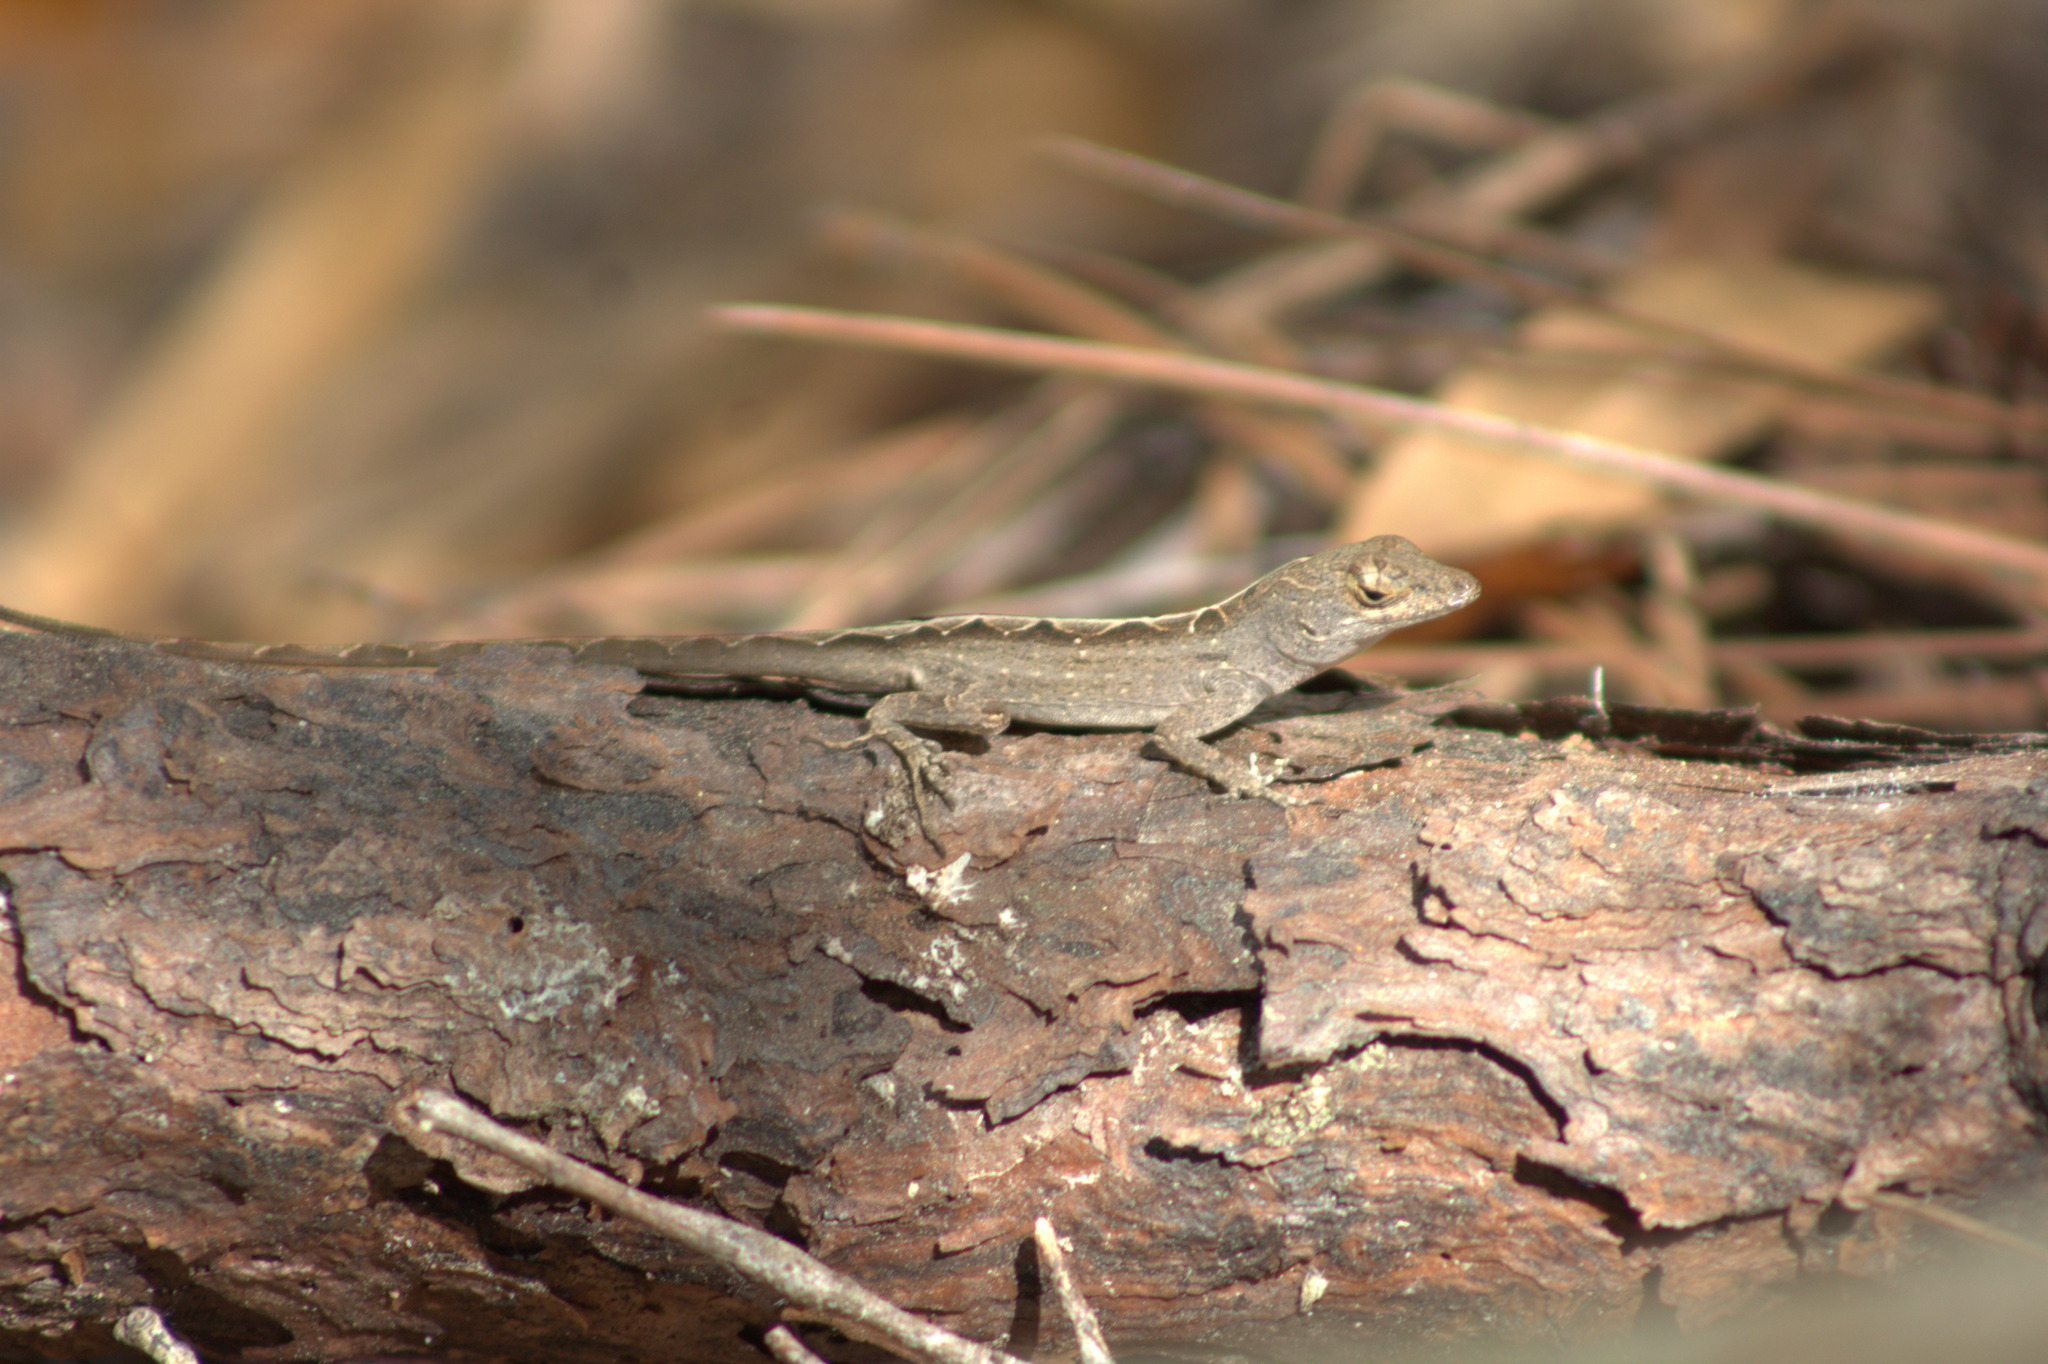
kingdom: Animalia
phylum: Chordata
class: Squamata
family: Dactyloidae
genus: Anolis
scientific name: Anolis sagrei
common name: Brown anole
